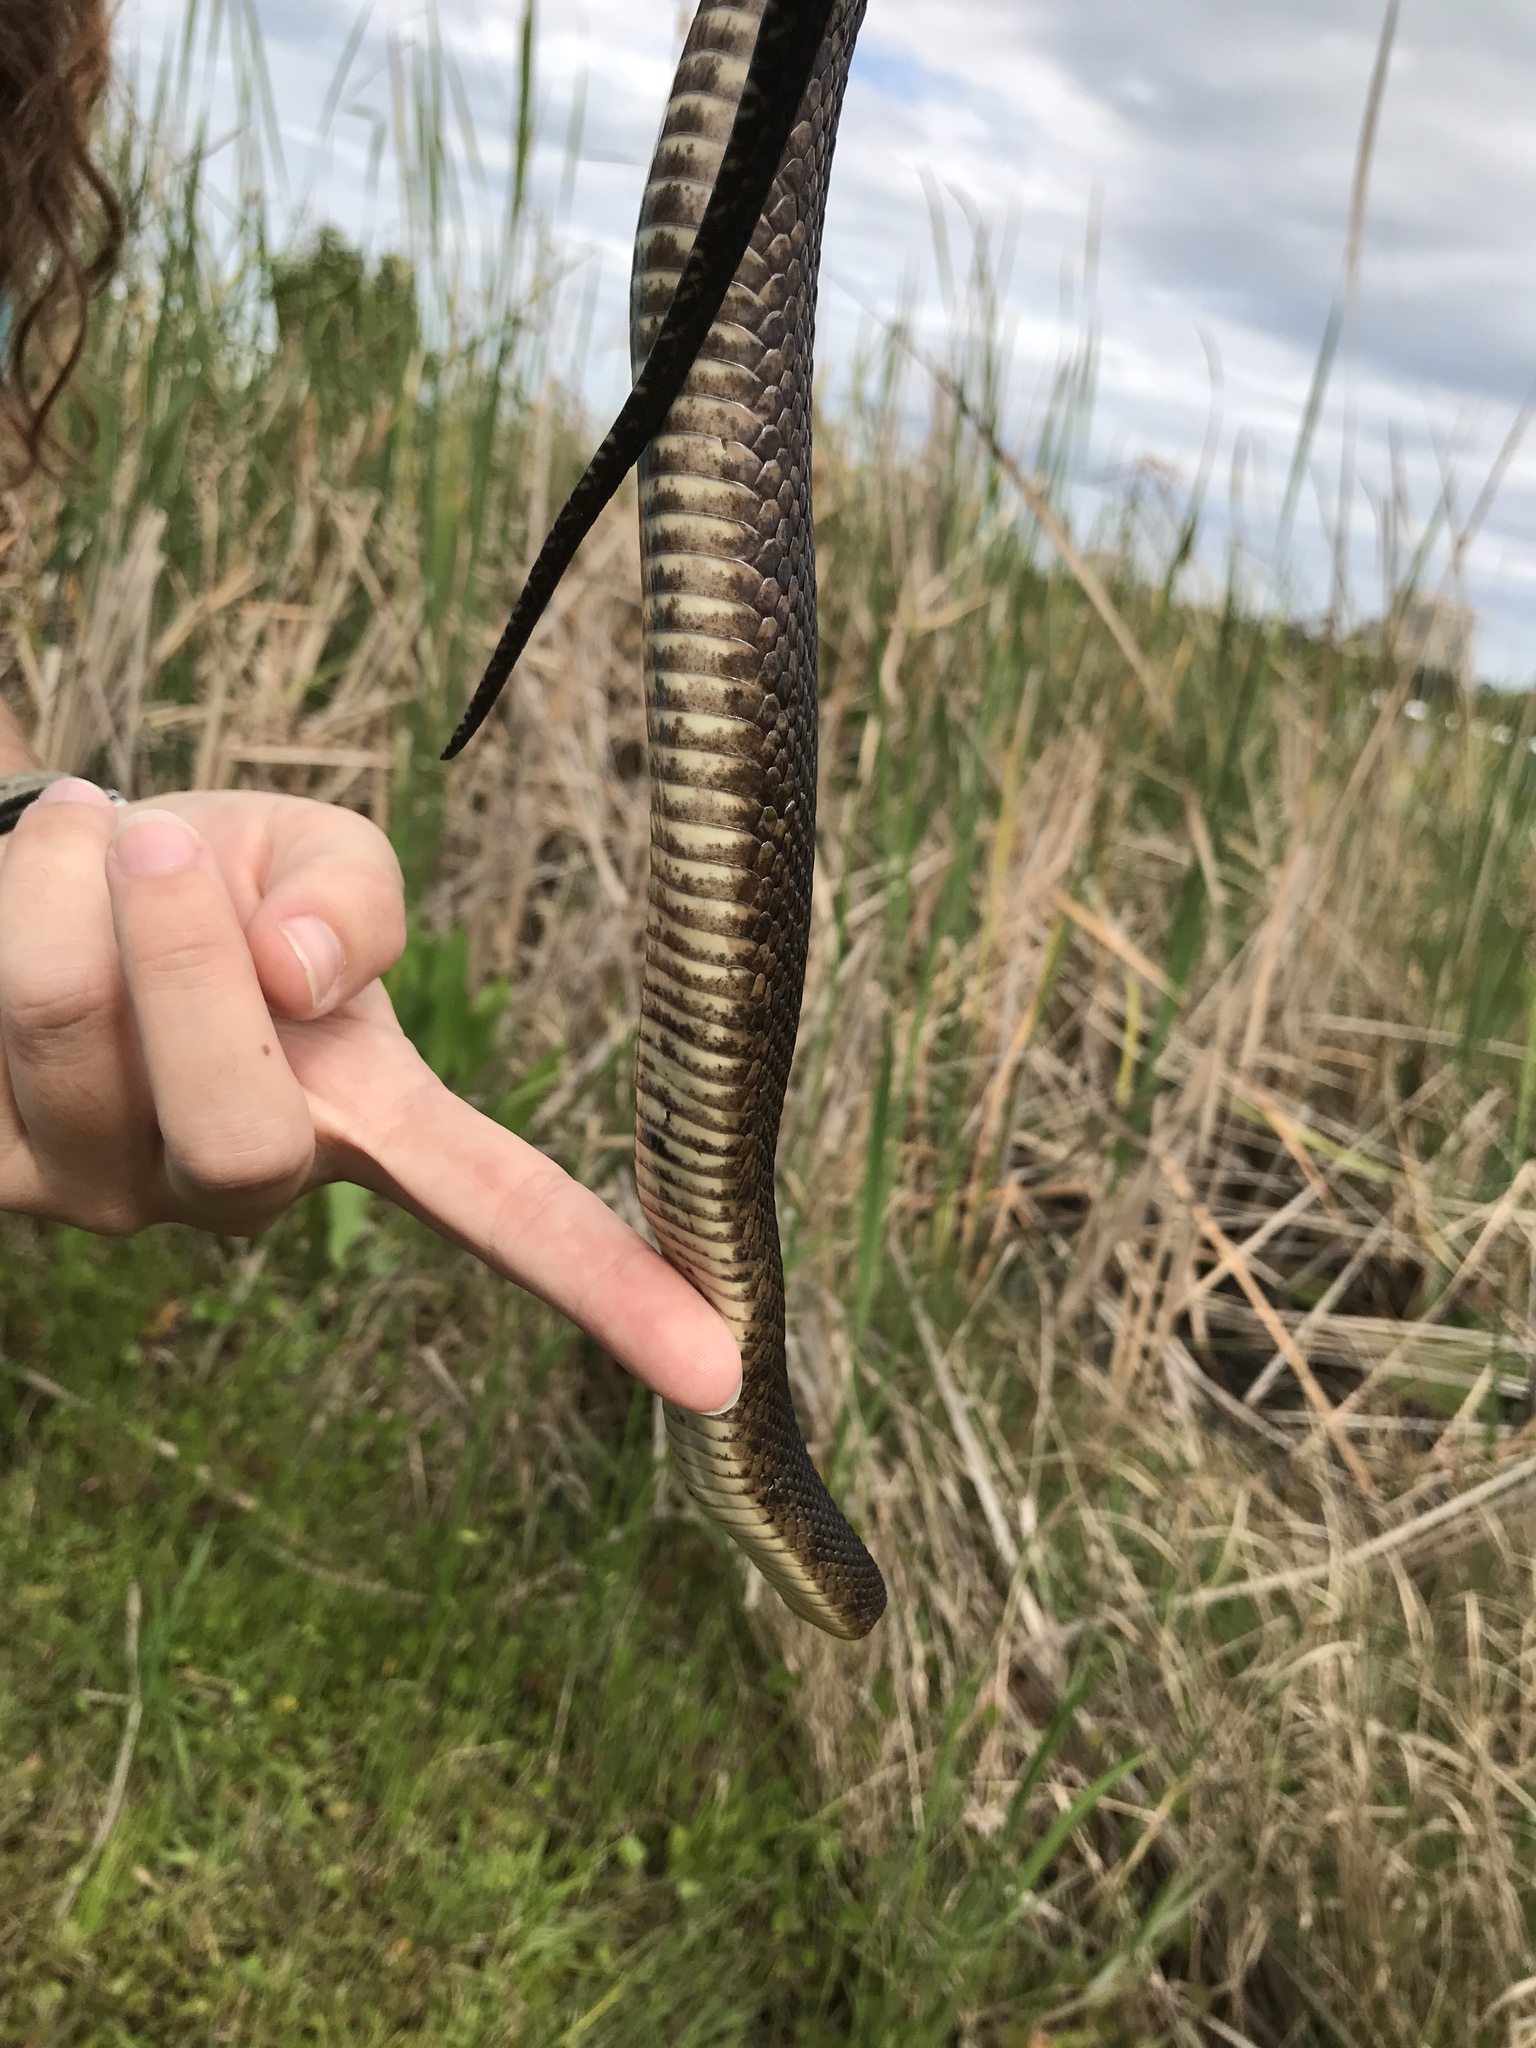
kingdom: Animalia
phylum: Chordata
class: Squamata
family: Colubridae
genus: Nerodia
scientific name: Nerodia cyclopion
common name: Mississippi green water snake
